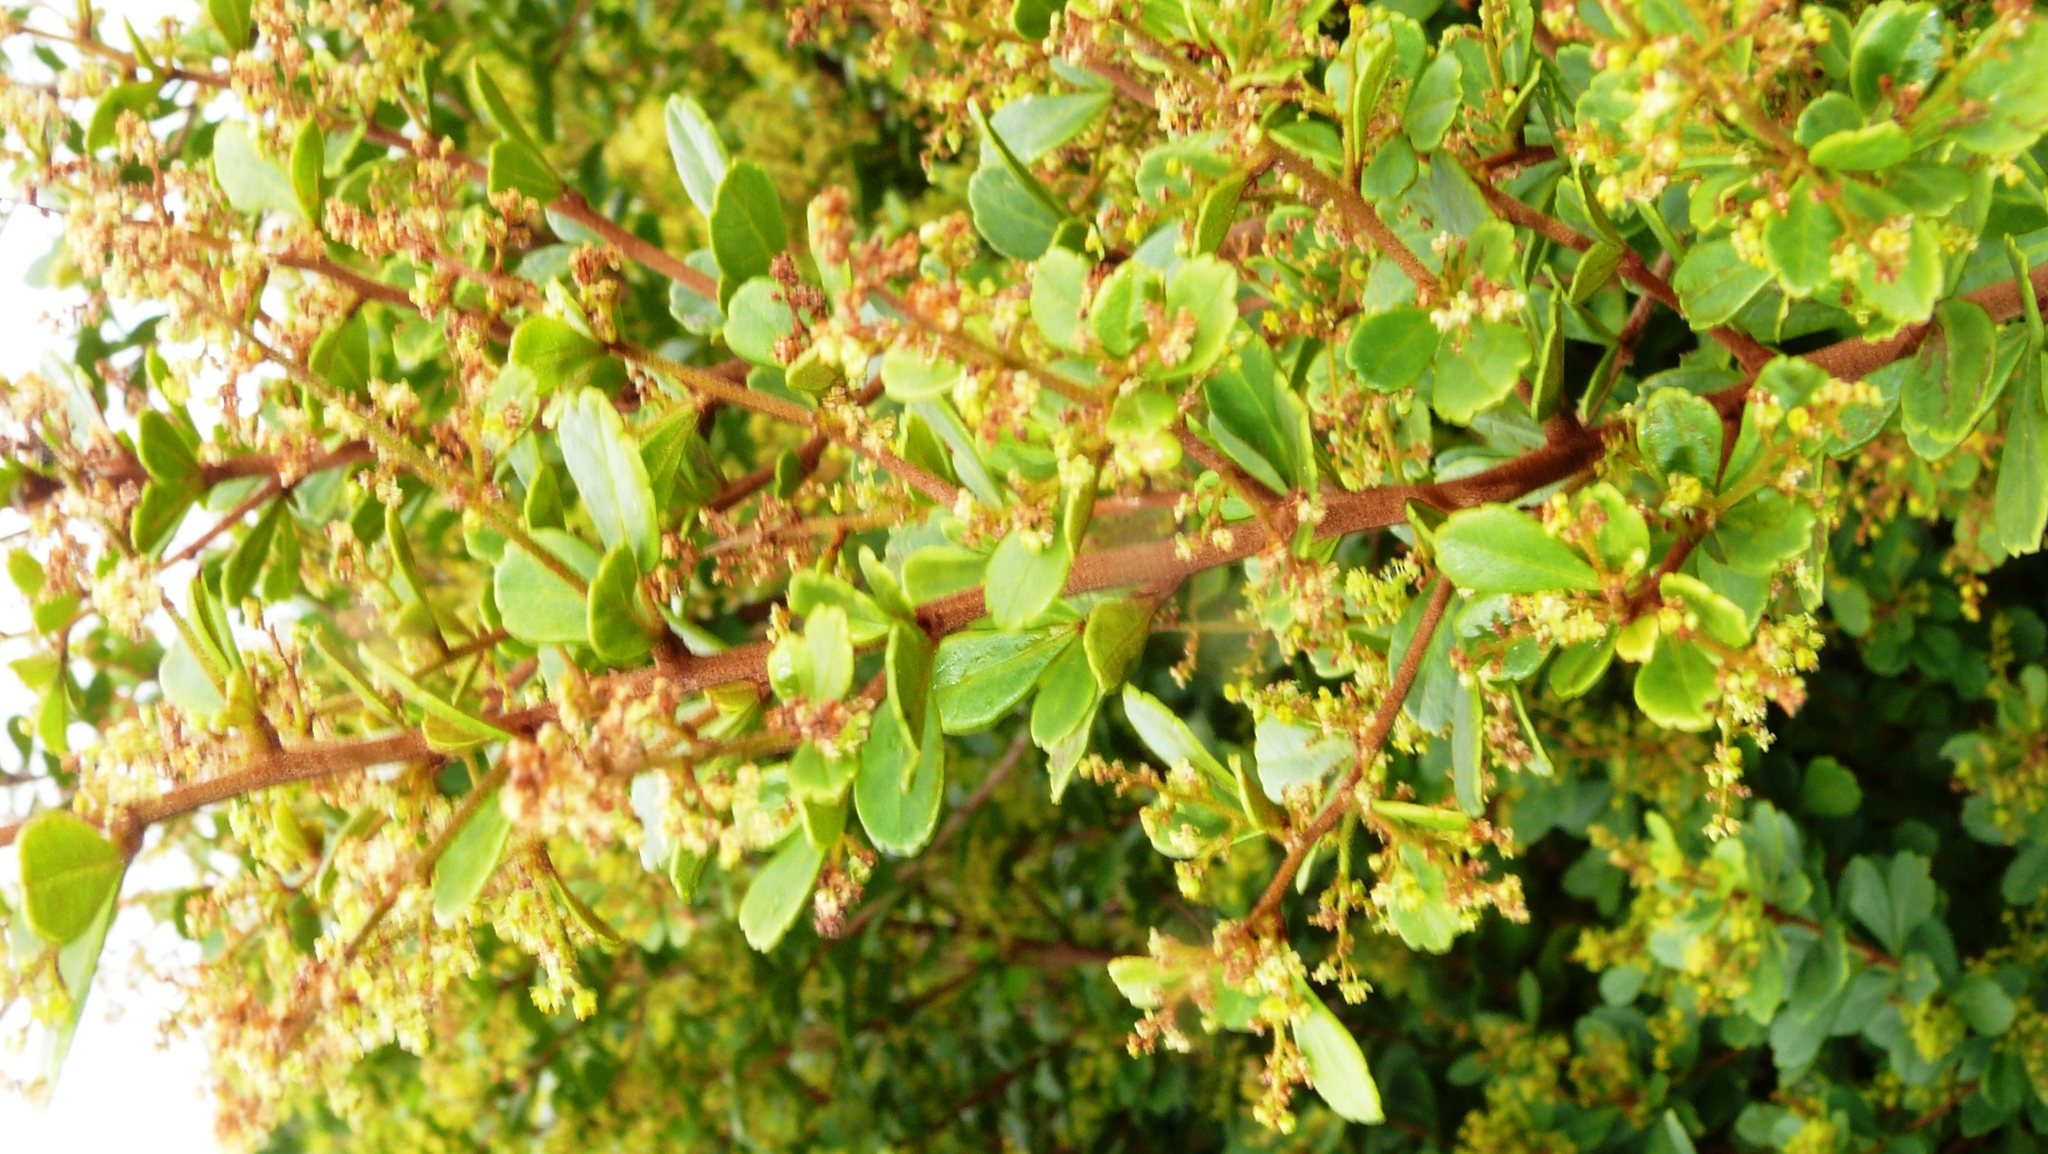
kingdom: Plantae
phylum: Tracheophyta
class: Magnoliopsida
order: Sapindales
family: Anacardiaceae
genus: Searsia
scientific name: Searsia crenata
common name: Crowberry
